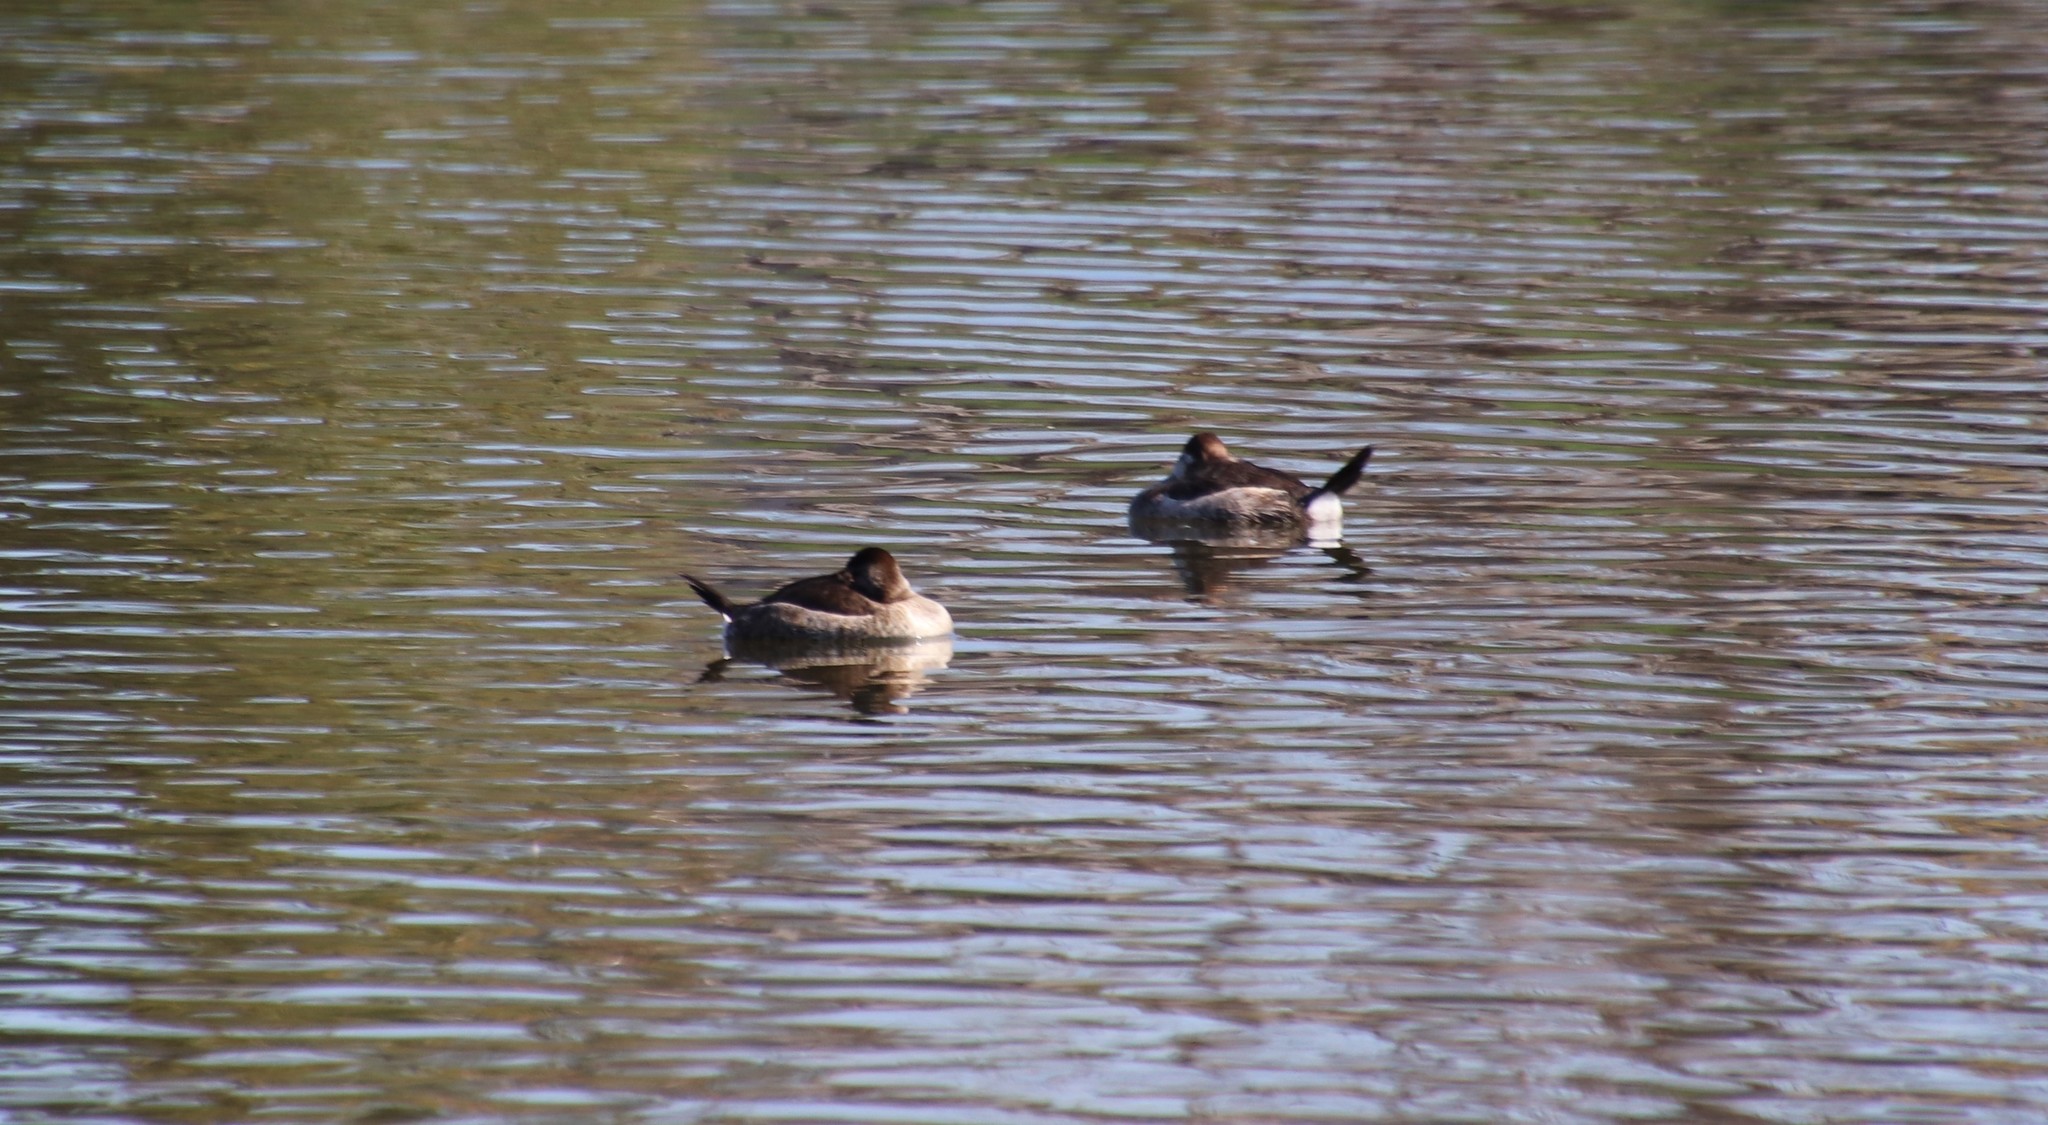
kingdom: Animalia
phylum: Chordata
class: Aves
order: Anseriformes
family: Anatidae
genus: Oxyura
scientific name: Oxyura jamaicensis
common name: Ruddy duck
